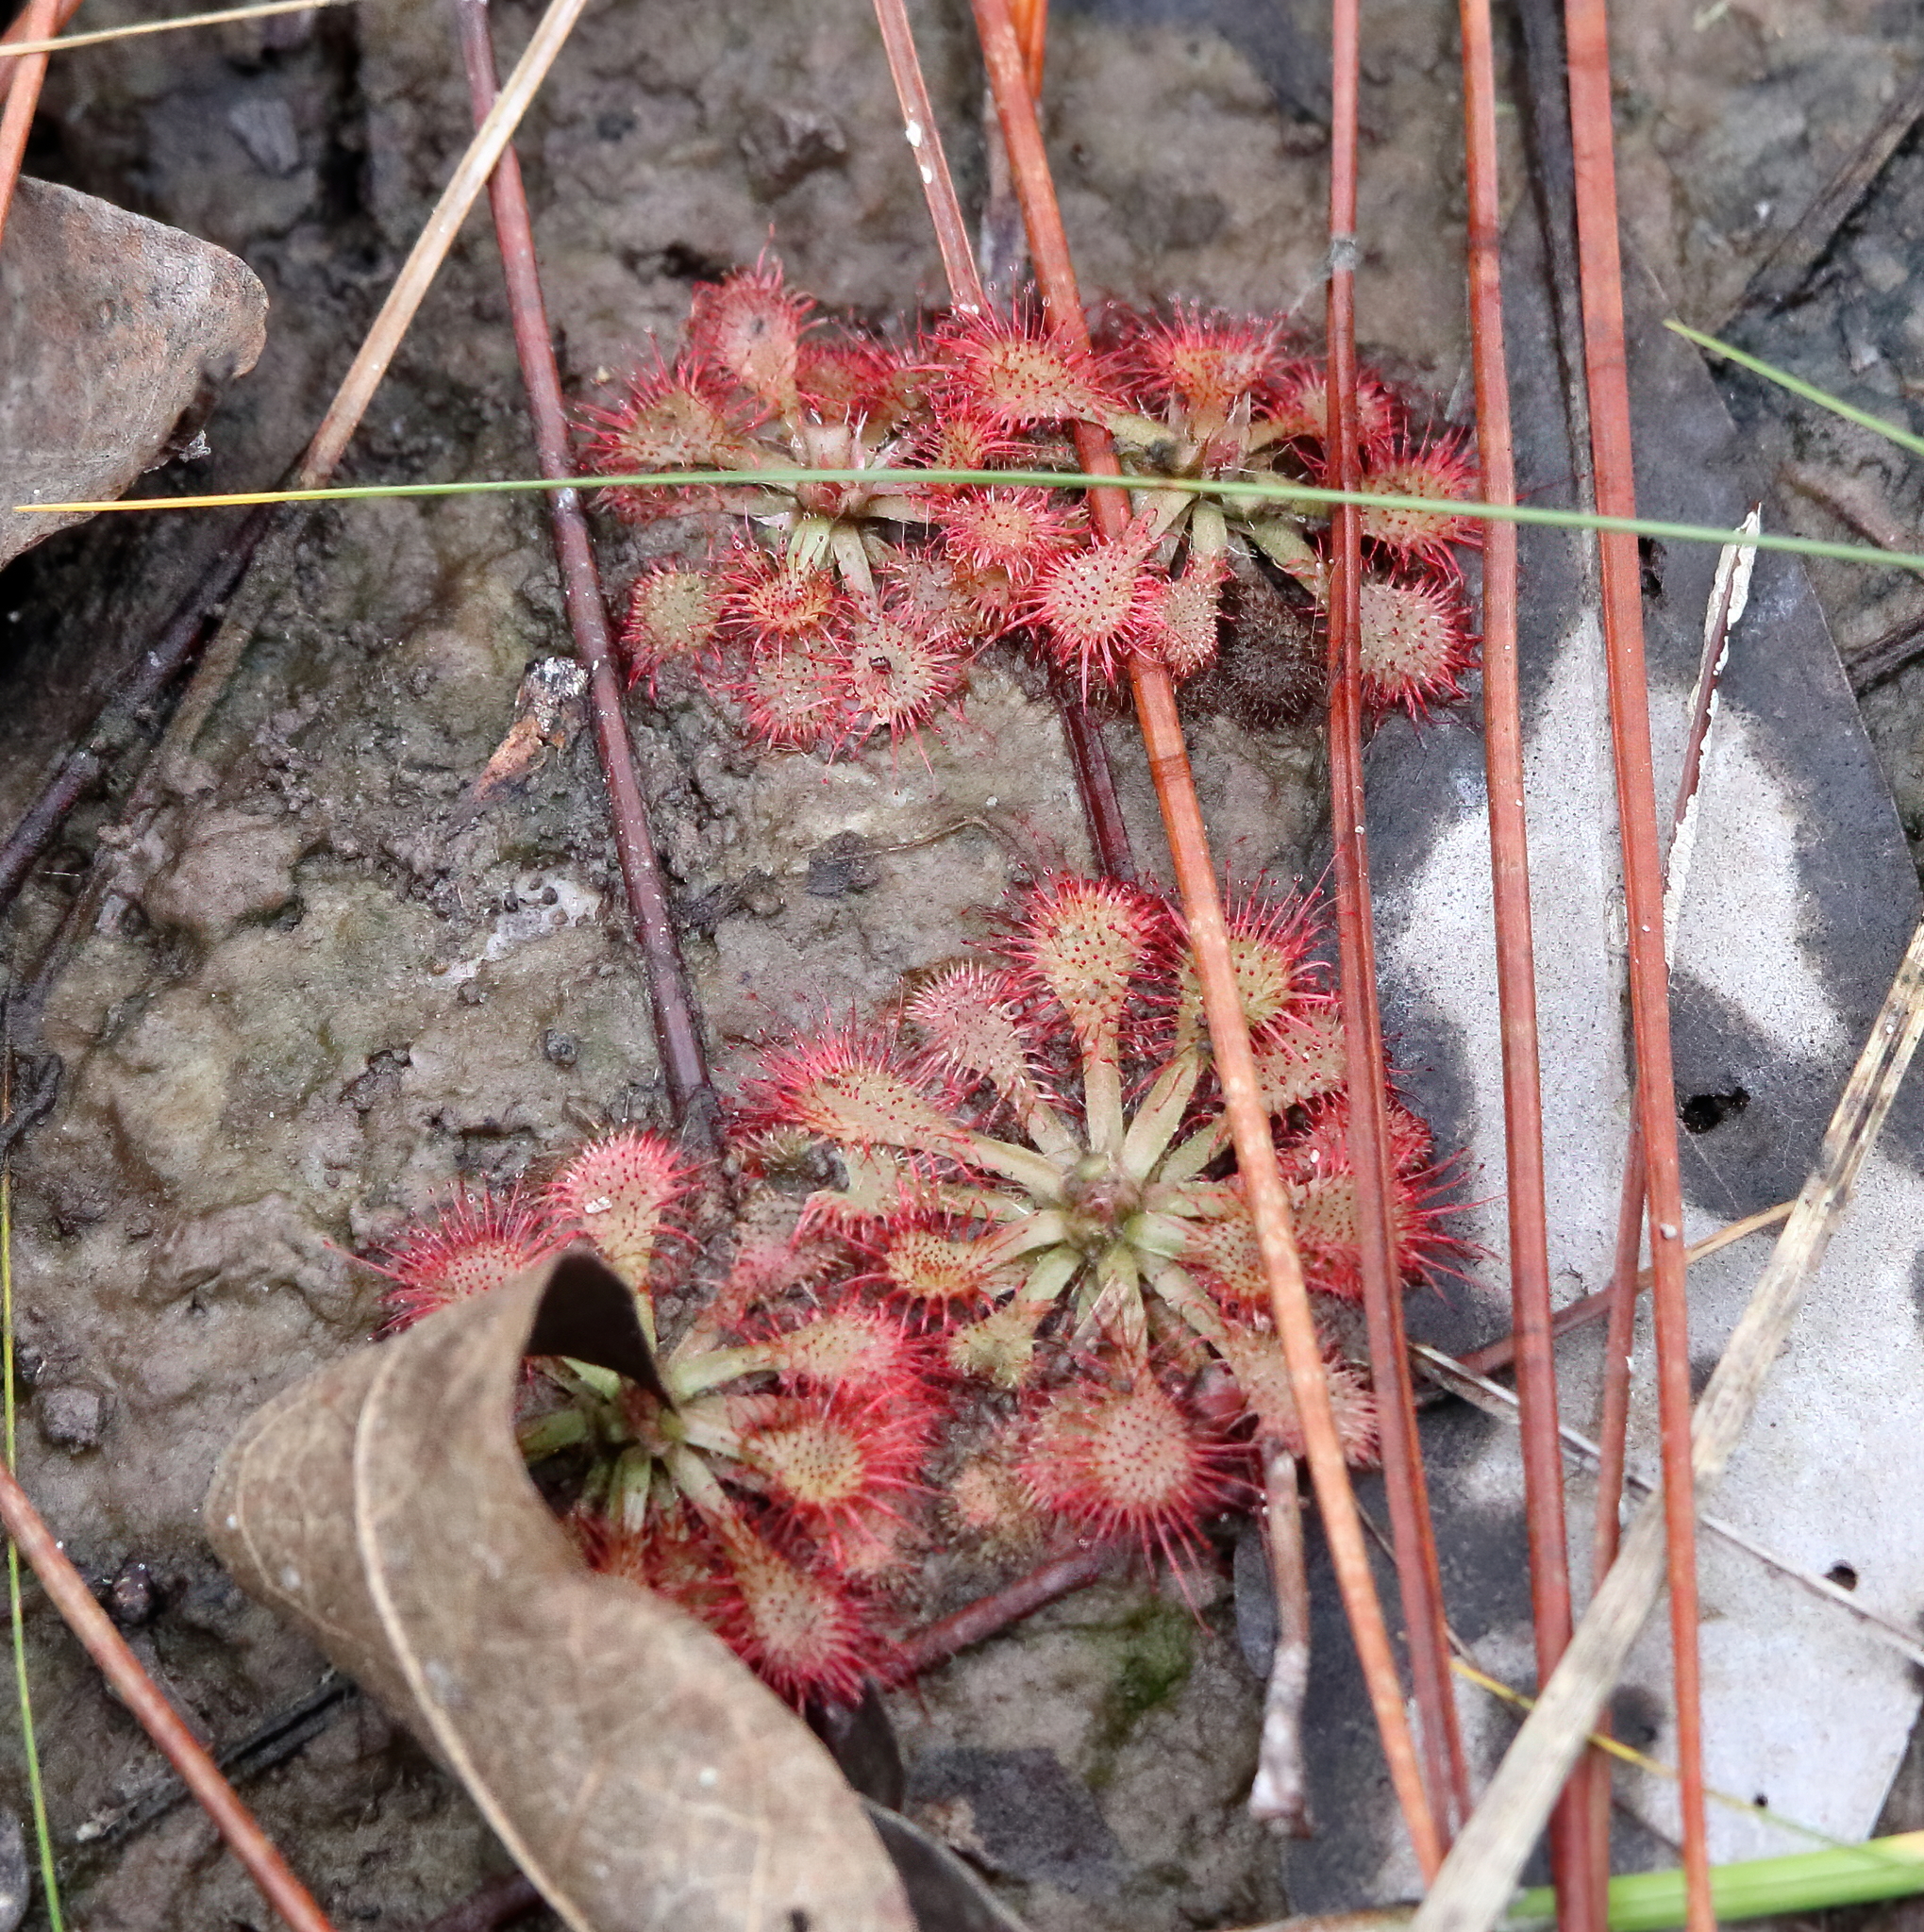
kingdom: Plantae
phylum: Tracheophyta
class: Magnoliopsida
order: Caryophyllales
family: Droseraceae
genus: Drosera
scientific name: Drosera capillaris
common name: Pink sundew
